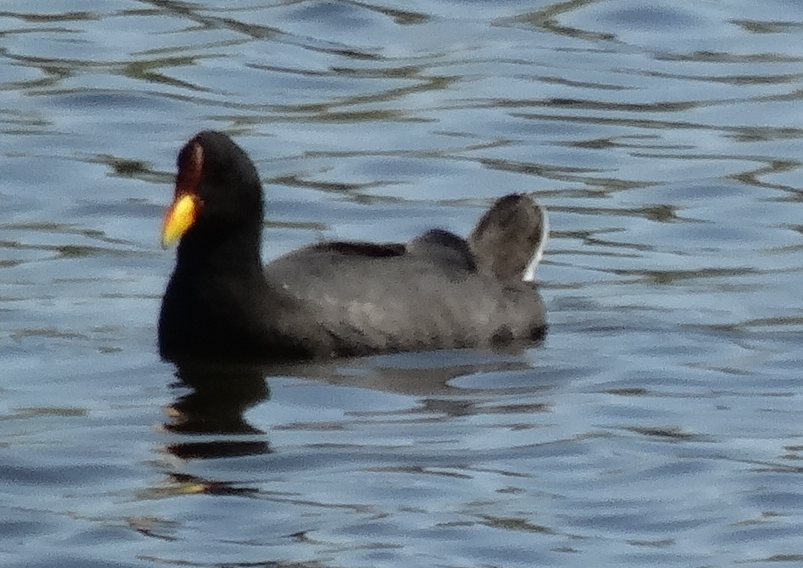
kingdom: Animalia
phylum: Chordata
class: Aves
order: Gruiformes
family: Rallidae
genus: Fulica
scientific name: Fulica rufifrons
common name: Red-fronted coot
